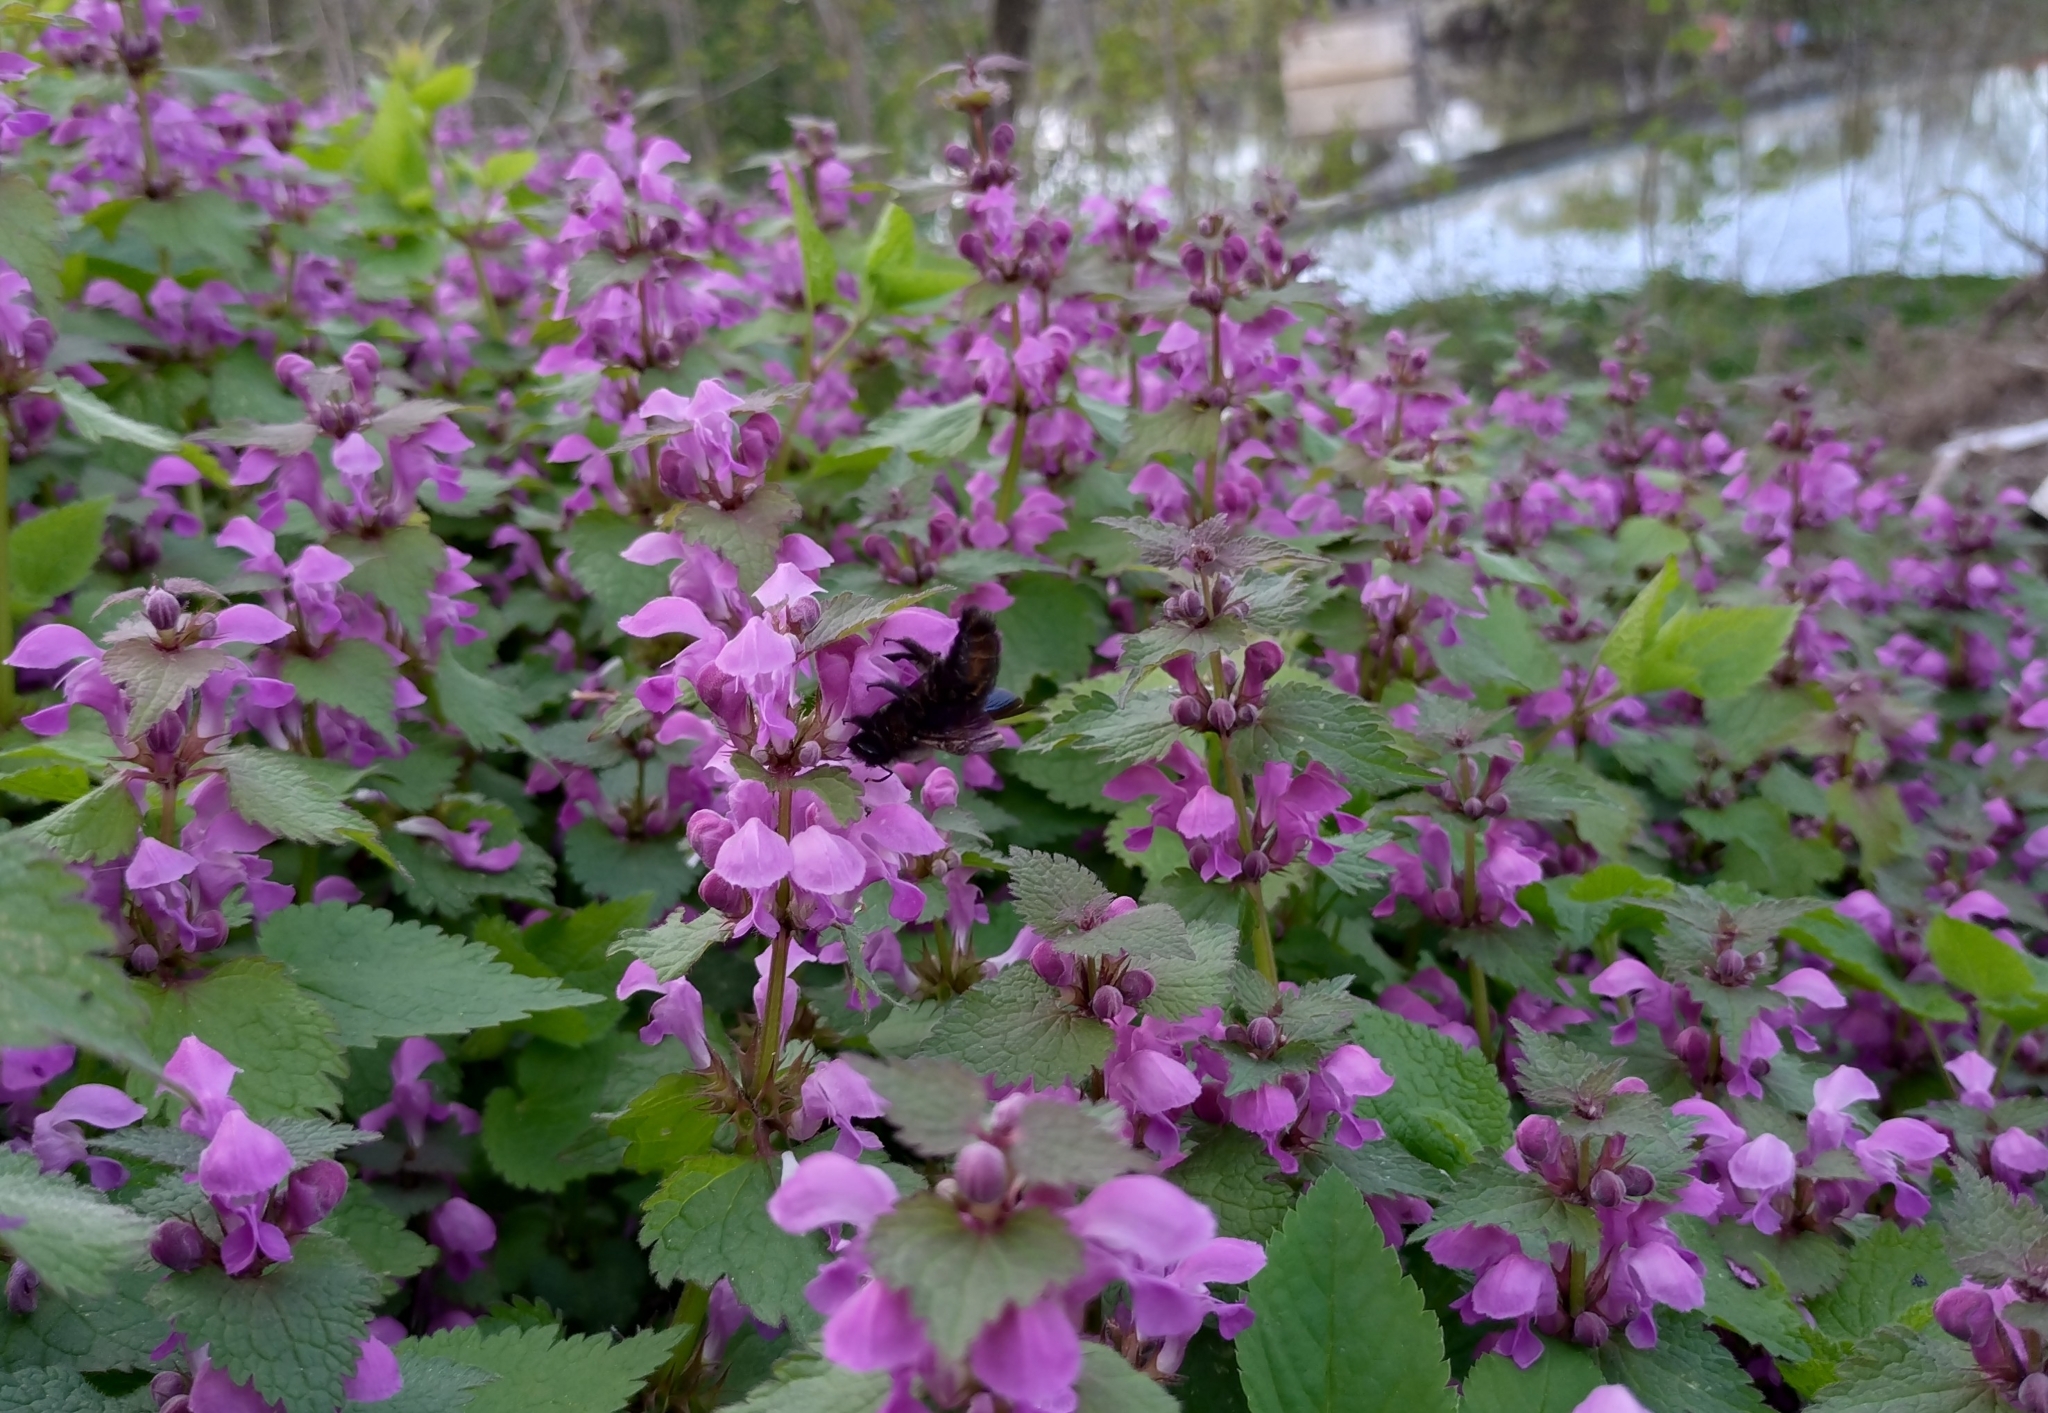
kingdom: Animalia
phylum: Arthropoda
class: Insecta
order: Hymenoptera
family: Apidae
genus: Xylocopa
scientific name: Xylocopa violacea
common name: Violet carpenter bee
